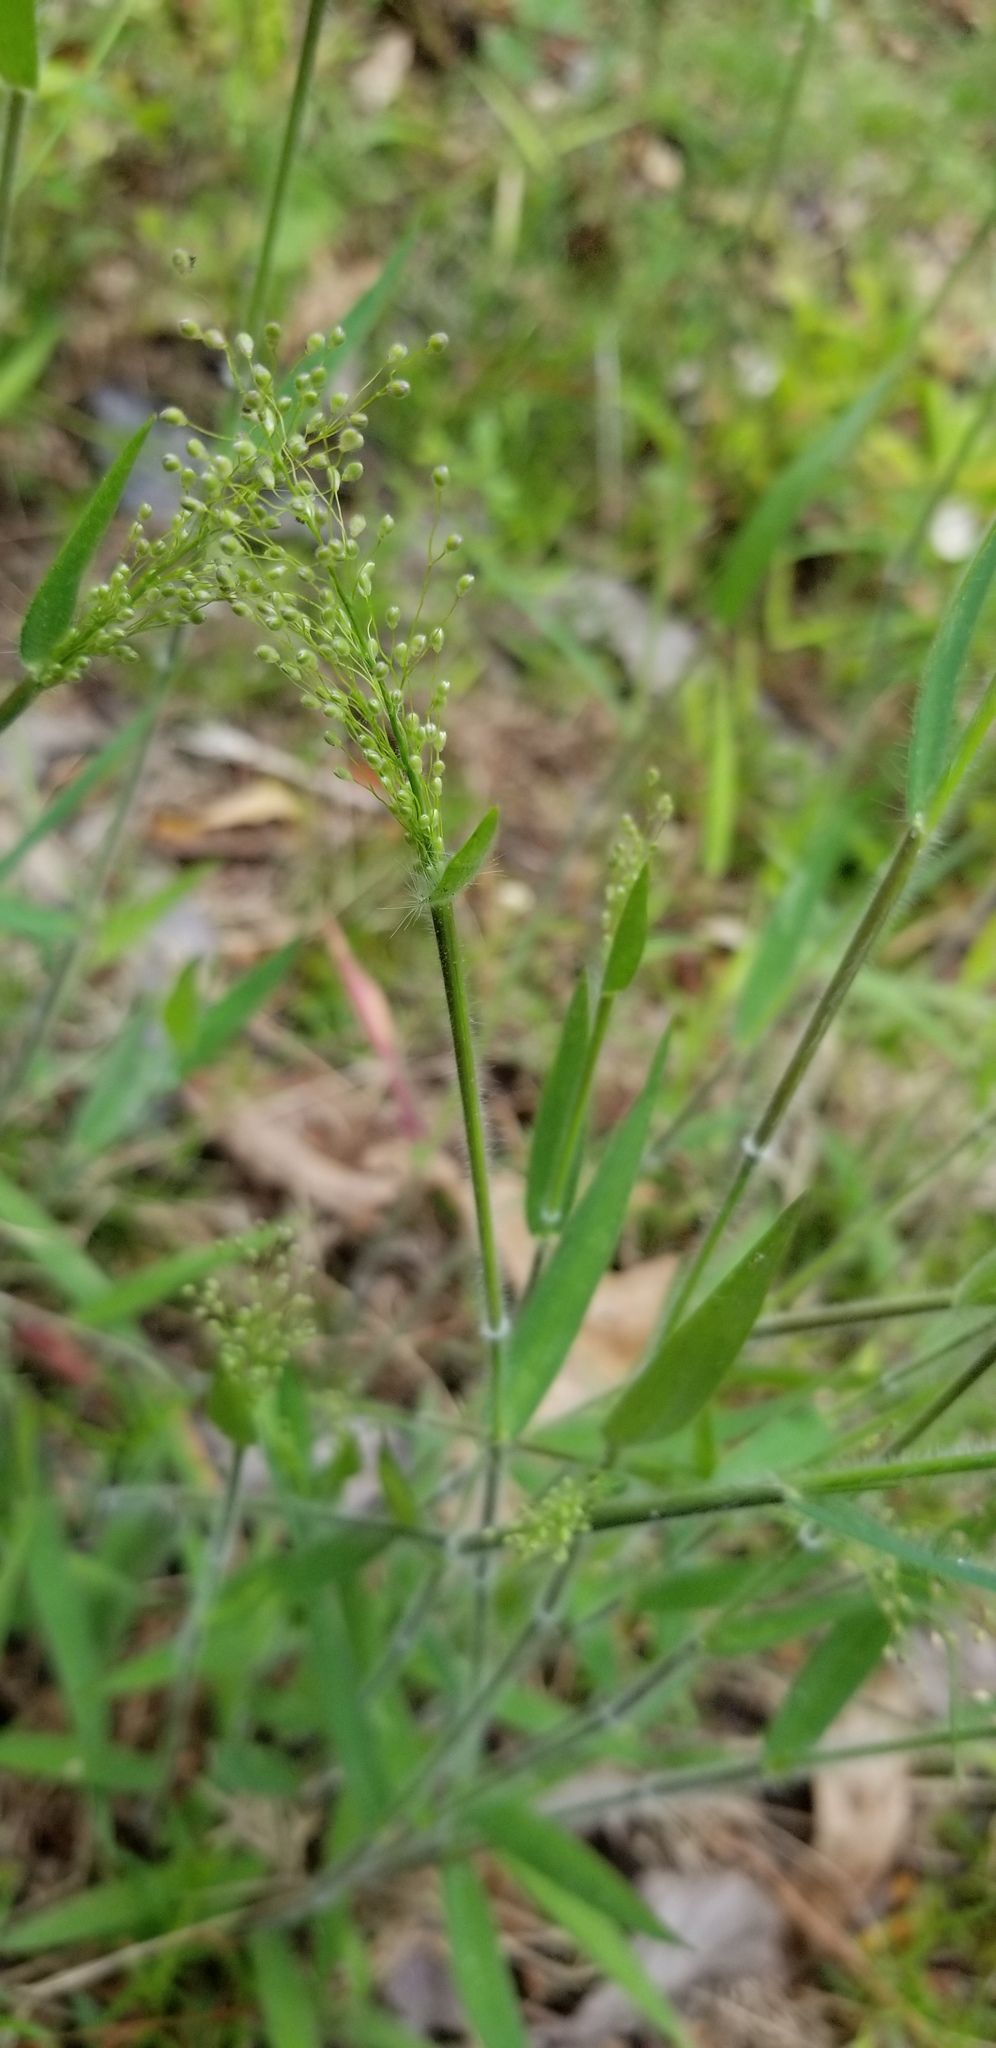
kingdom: Plantae
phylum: Tracheophyta
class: Liliopsida
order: Poales
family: Poaceae
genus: Dichanthelium
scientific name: Dichanthelium villosissimum
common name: White-haired panicgrass
